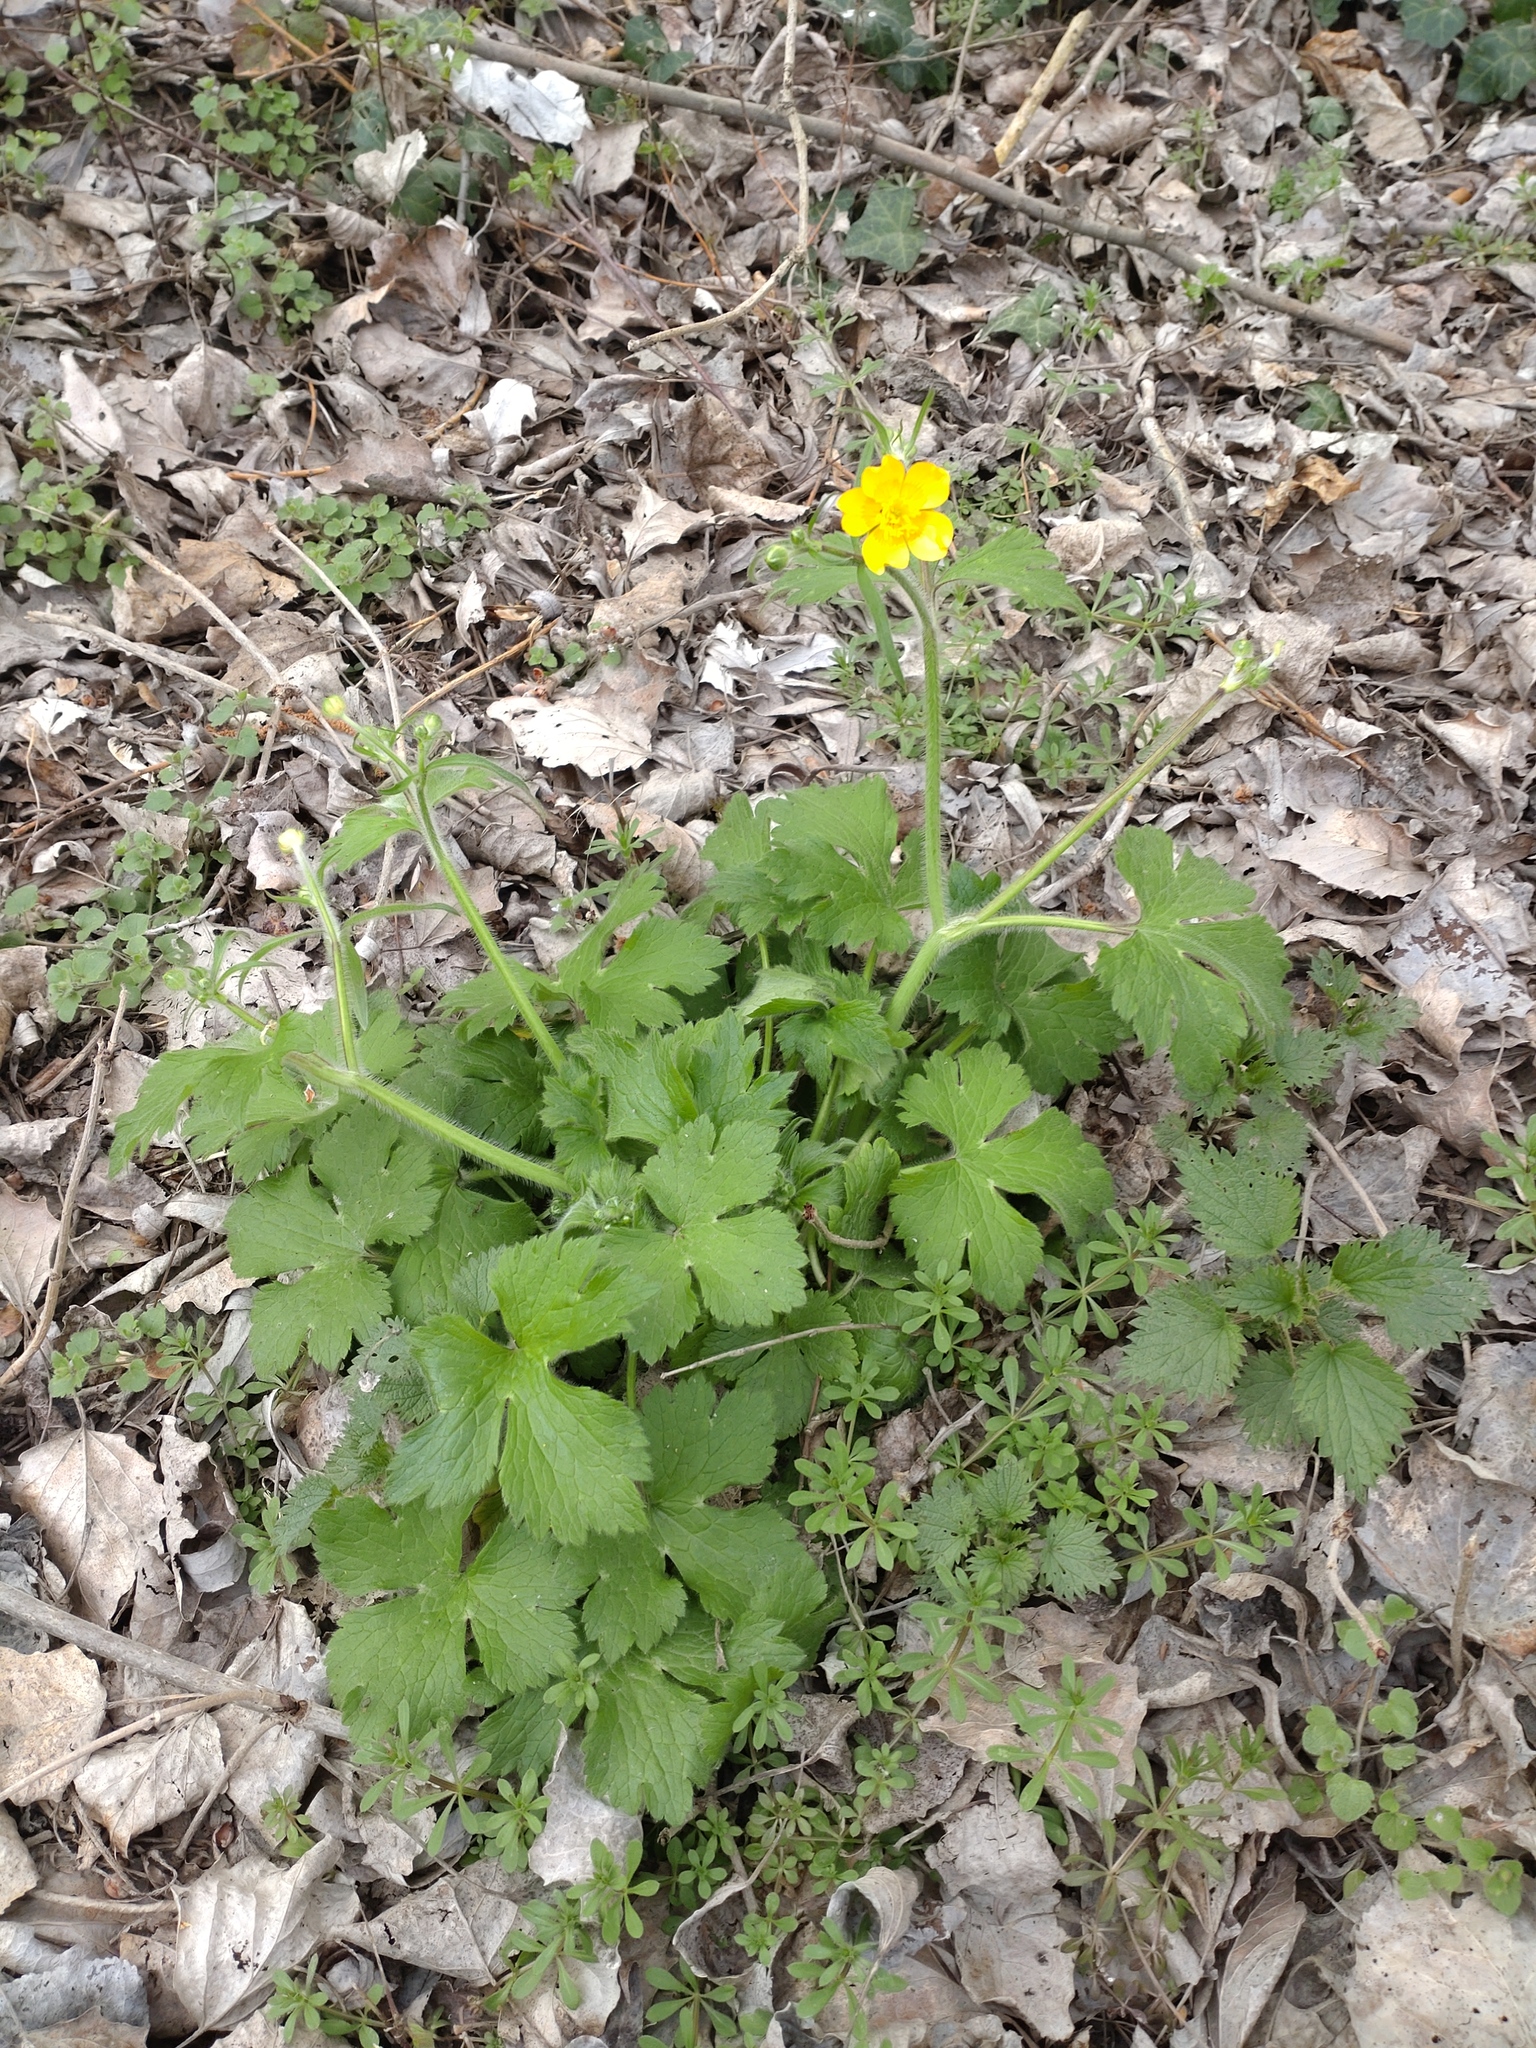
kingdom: Plantae
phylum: Tracheophyta
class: Magnoliopsida
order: Ranunculales
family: Ranunculaceae
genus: Ranunculus
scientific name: Ranunculus lanuginosus
